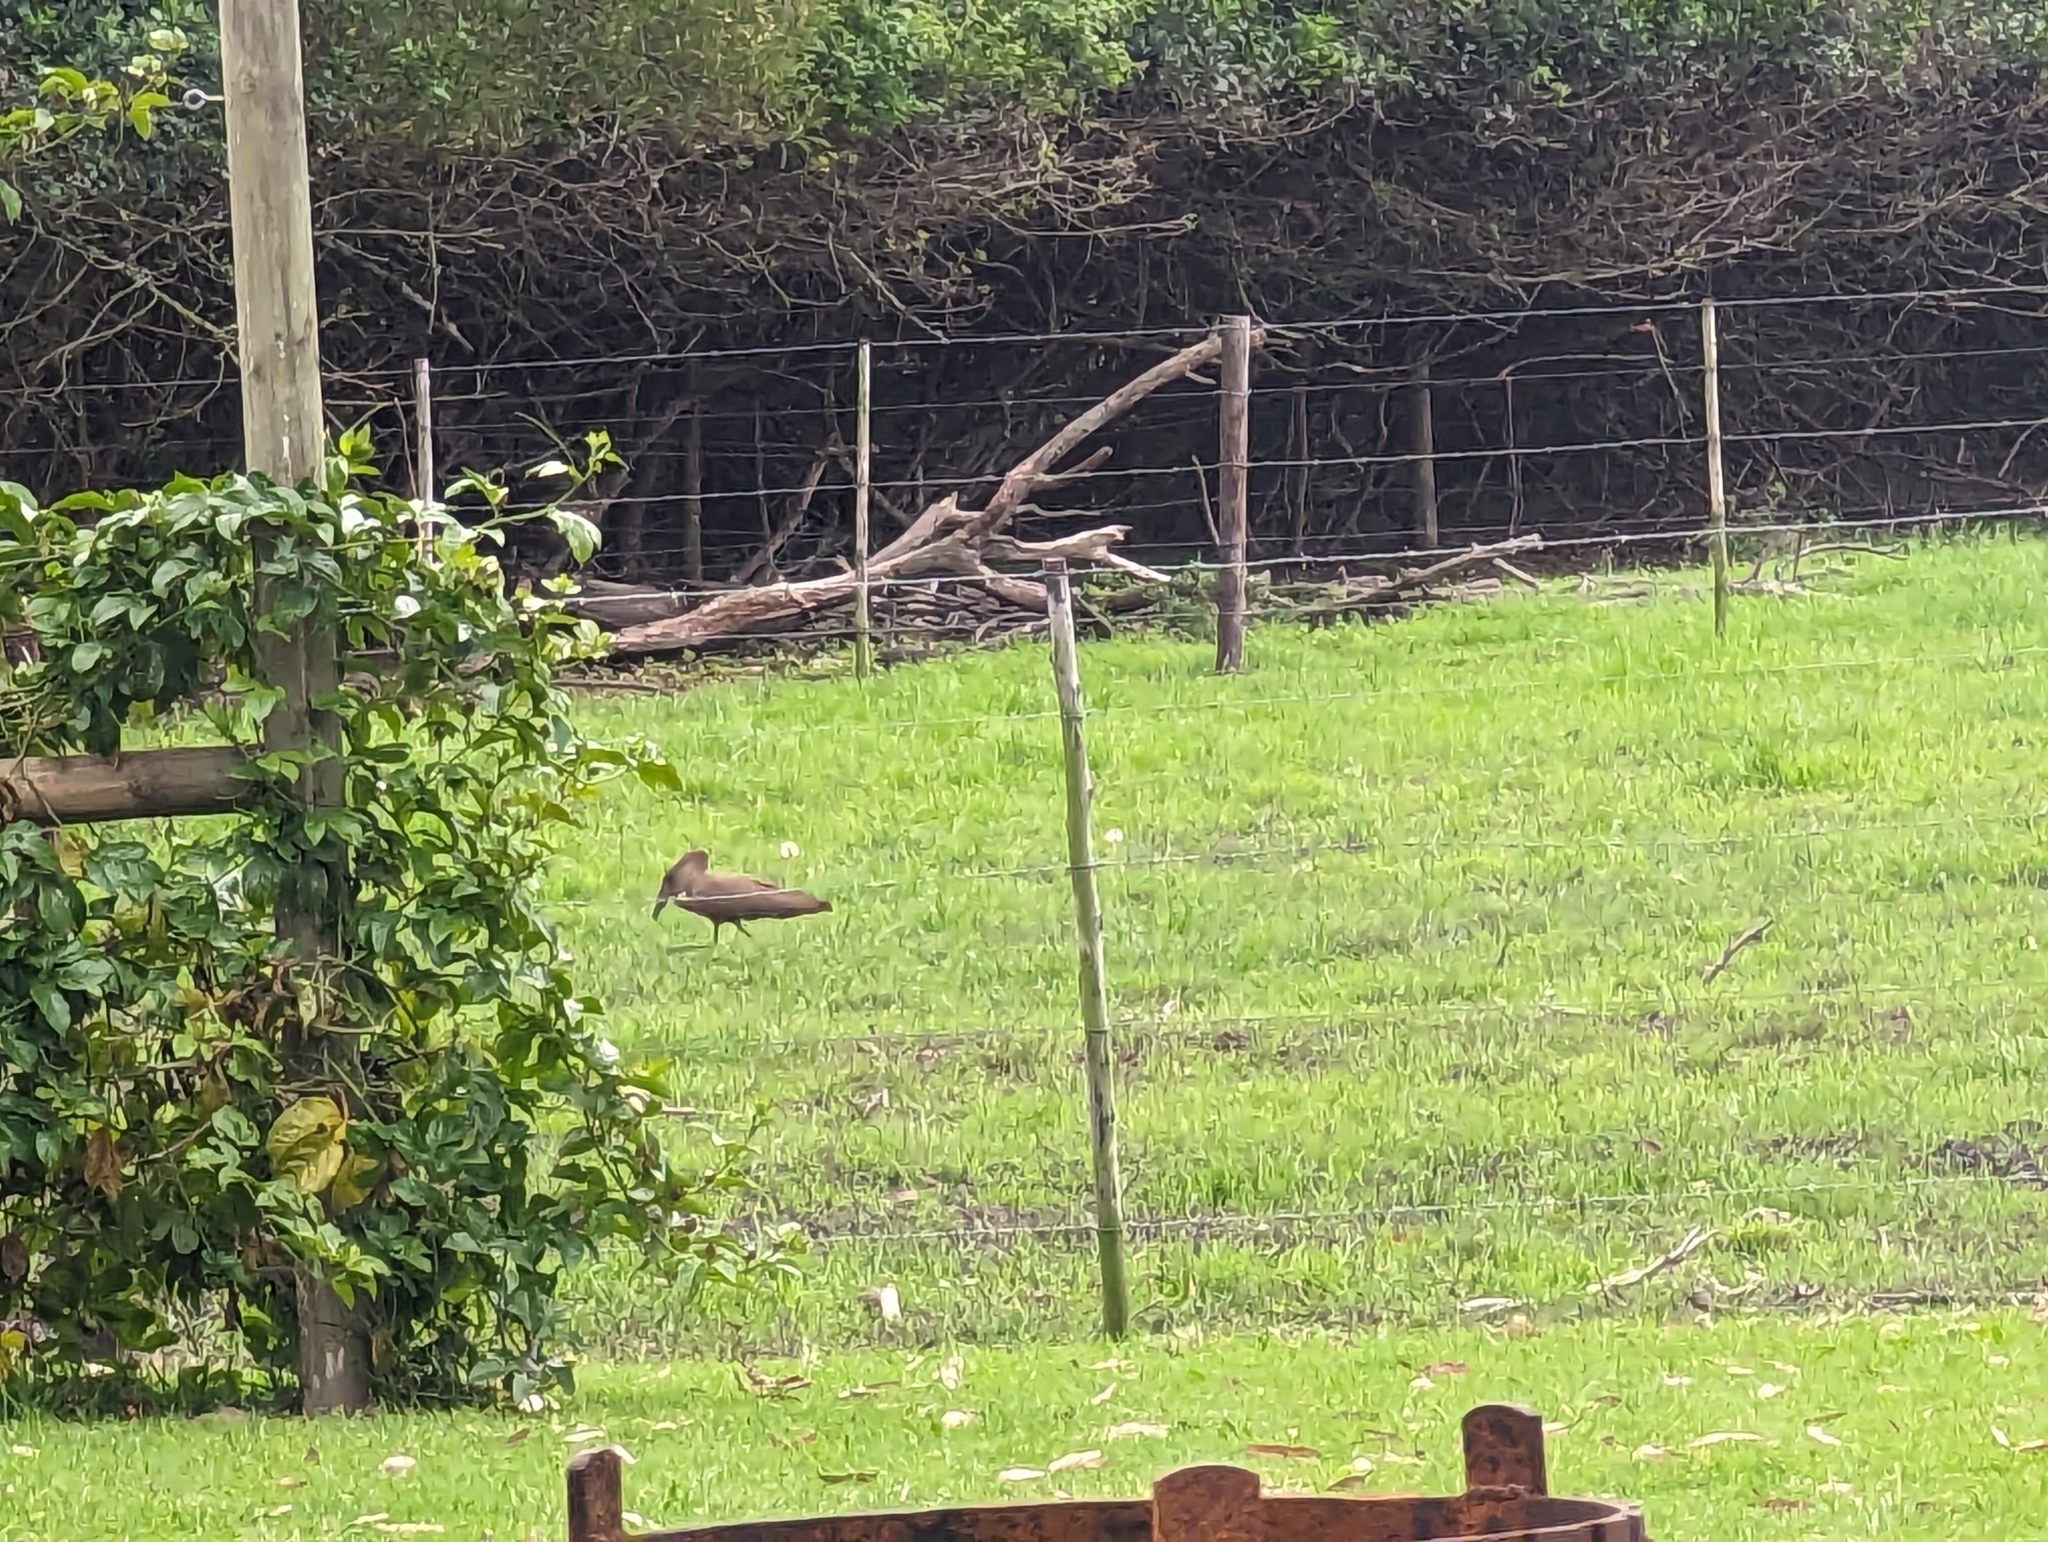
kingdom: Animalia
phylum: Chordata
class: Aves
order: Pelecaniformes
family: Scopidae
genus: Scopus
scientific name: Scopus umbretta
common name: Hamerkop
